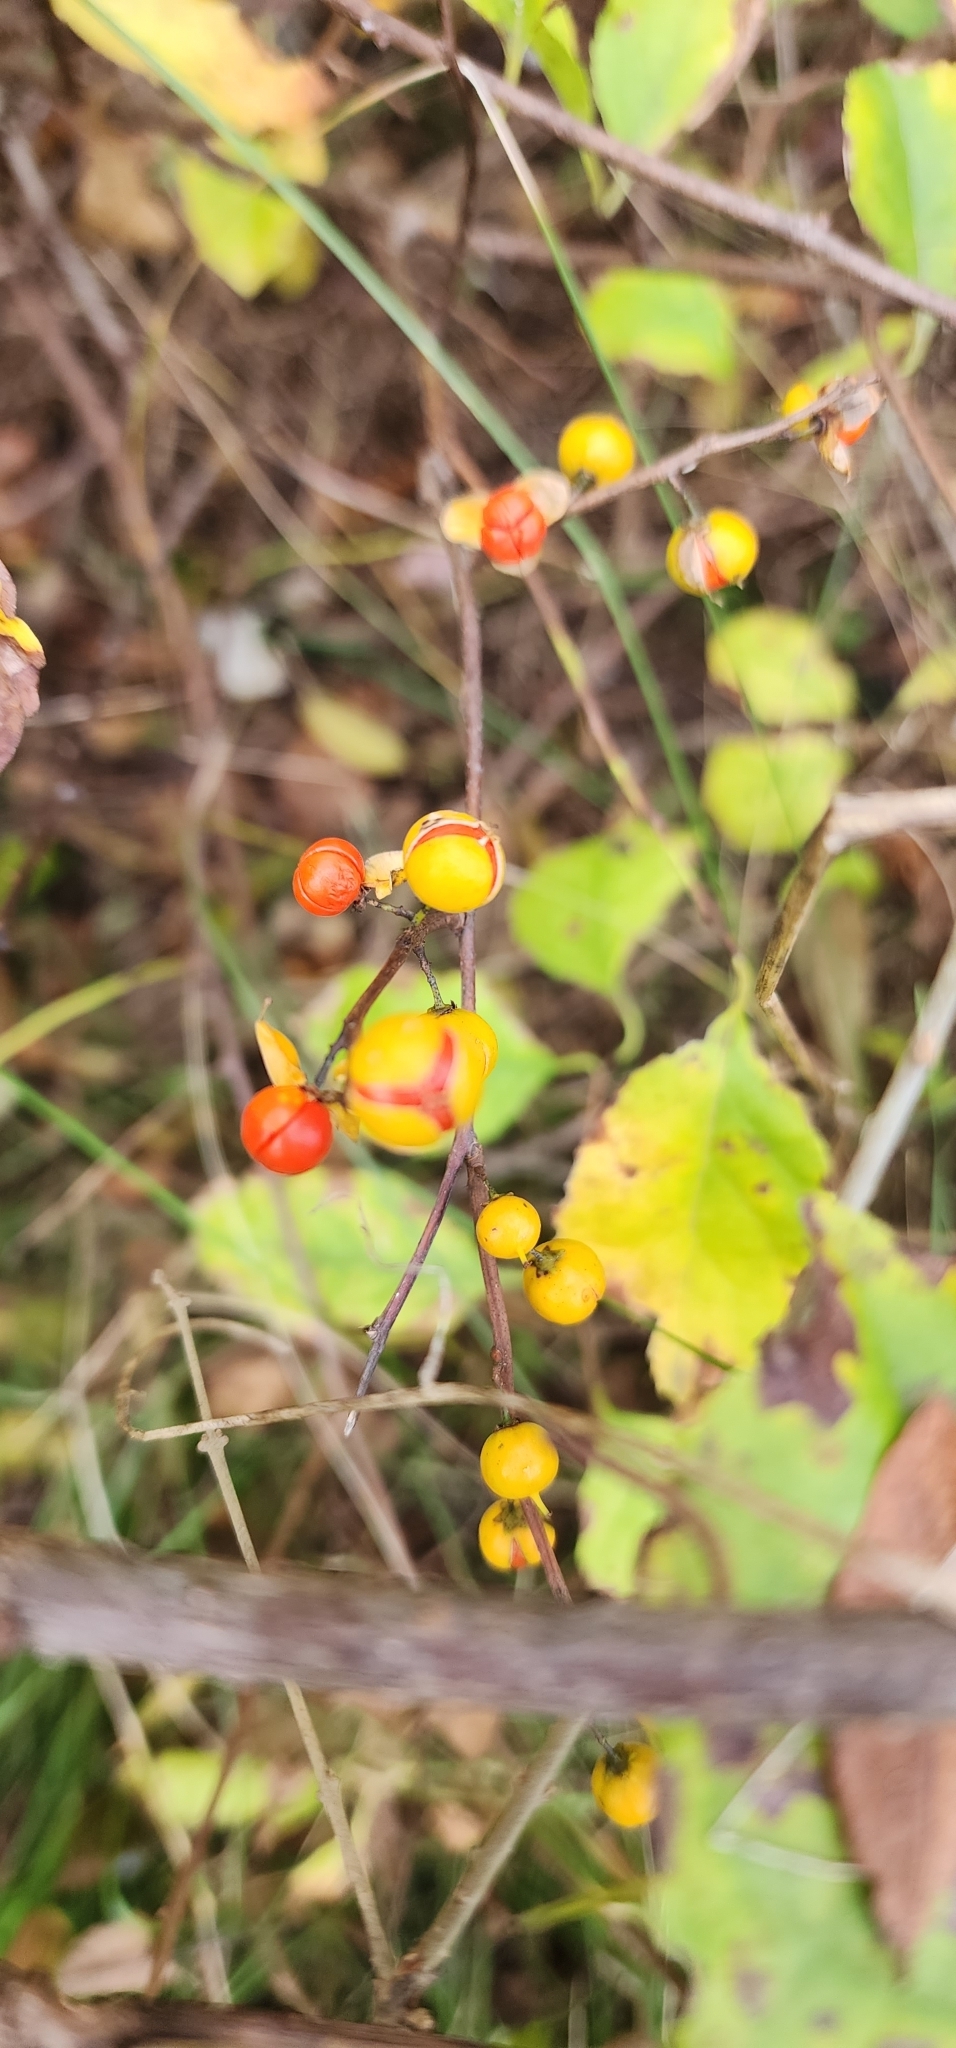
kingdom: Plantae
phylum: Tracheophyta
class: Magnoliopsida
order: Celastrales
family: Celastraceae
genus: Celastrus
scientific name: Celastrus orbiculatus
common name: Oriental bittersweet
